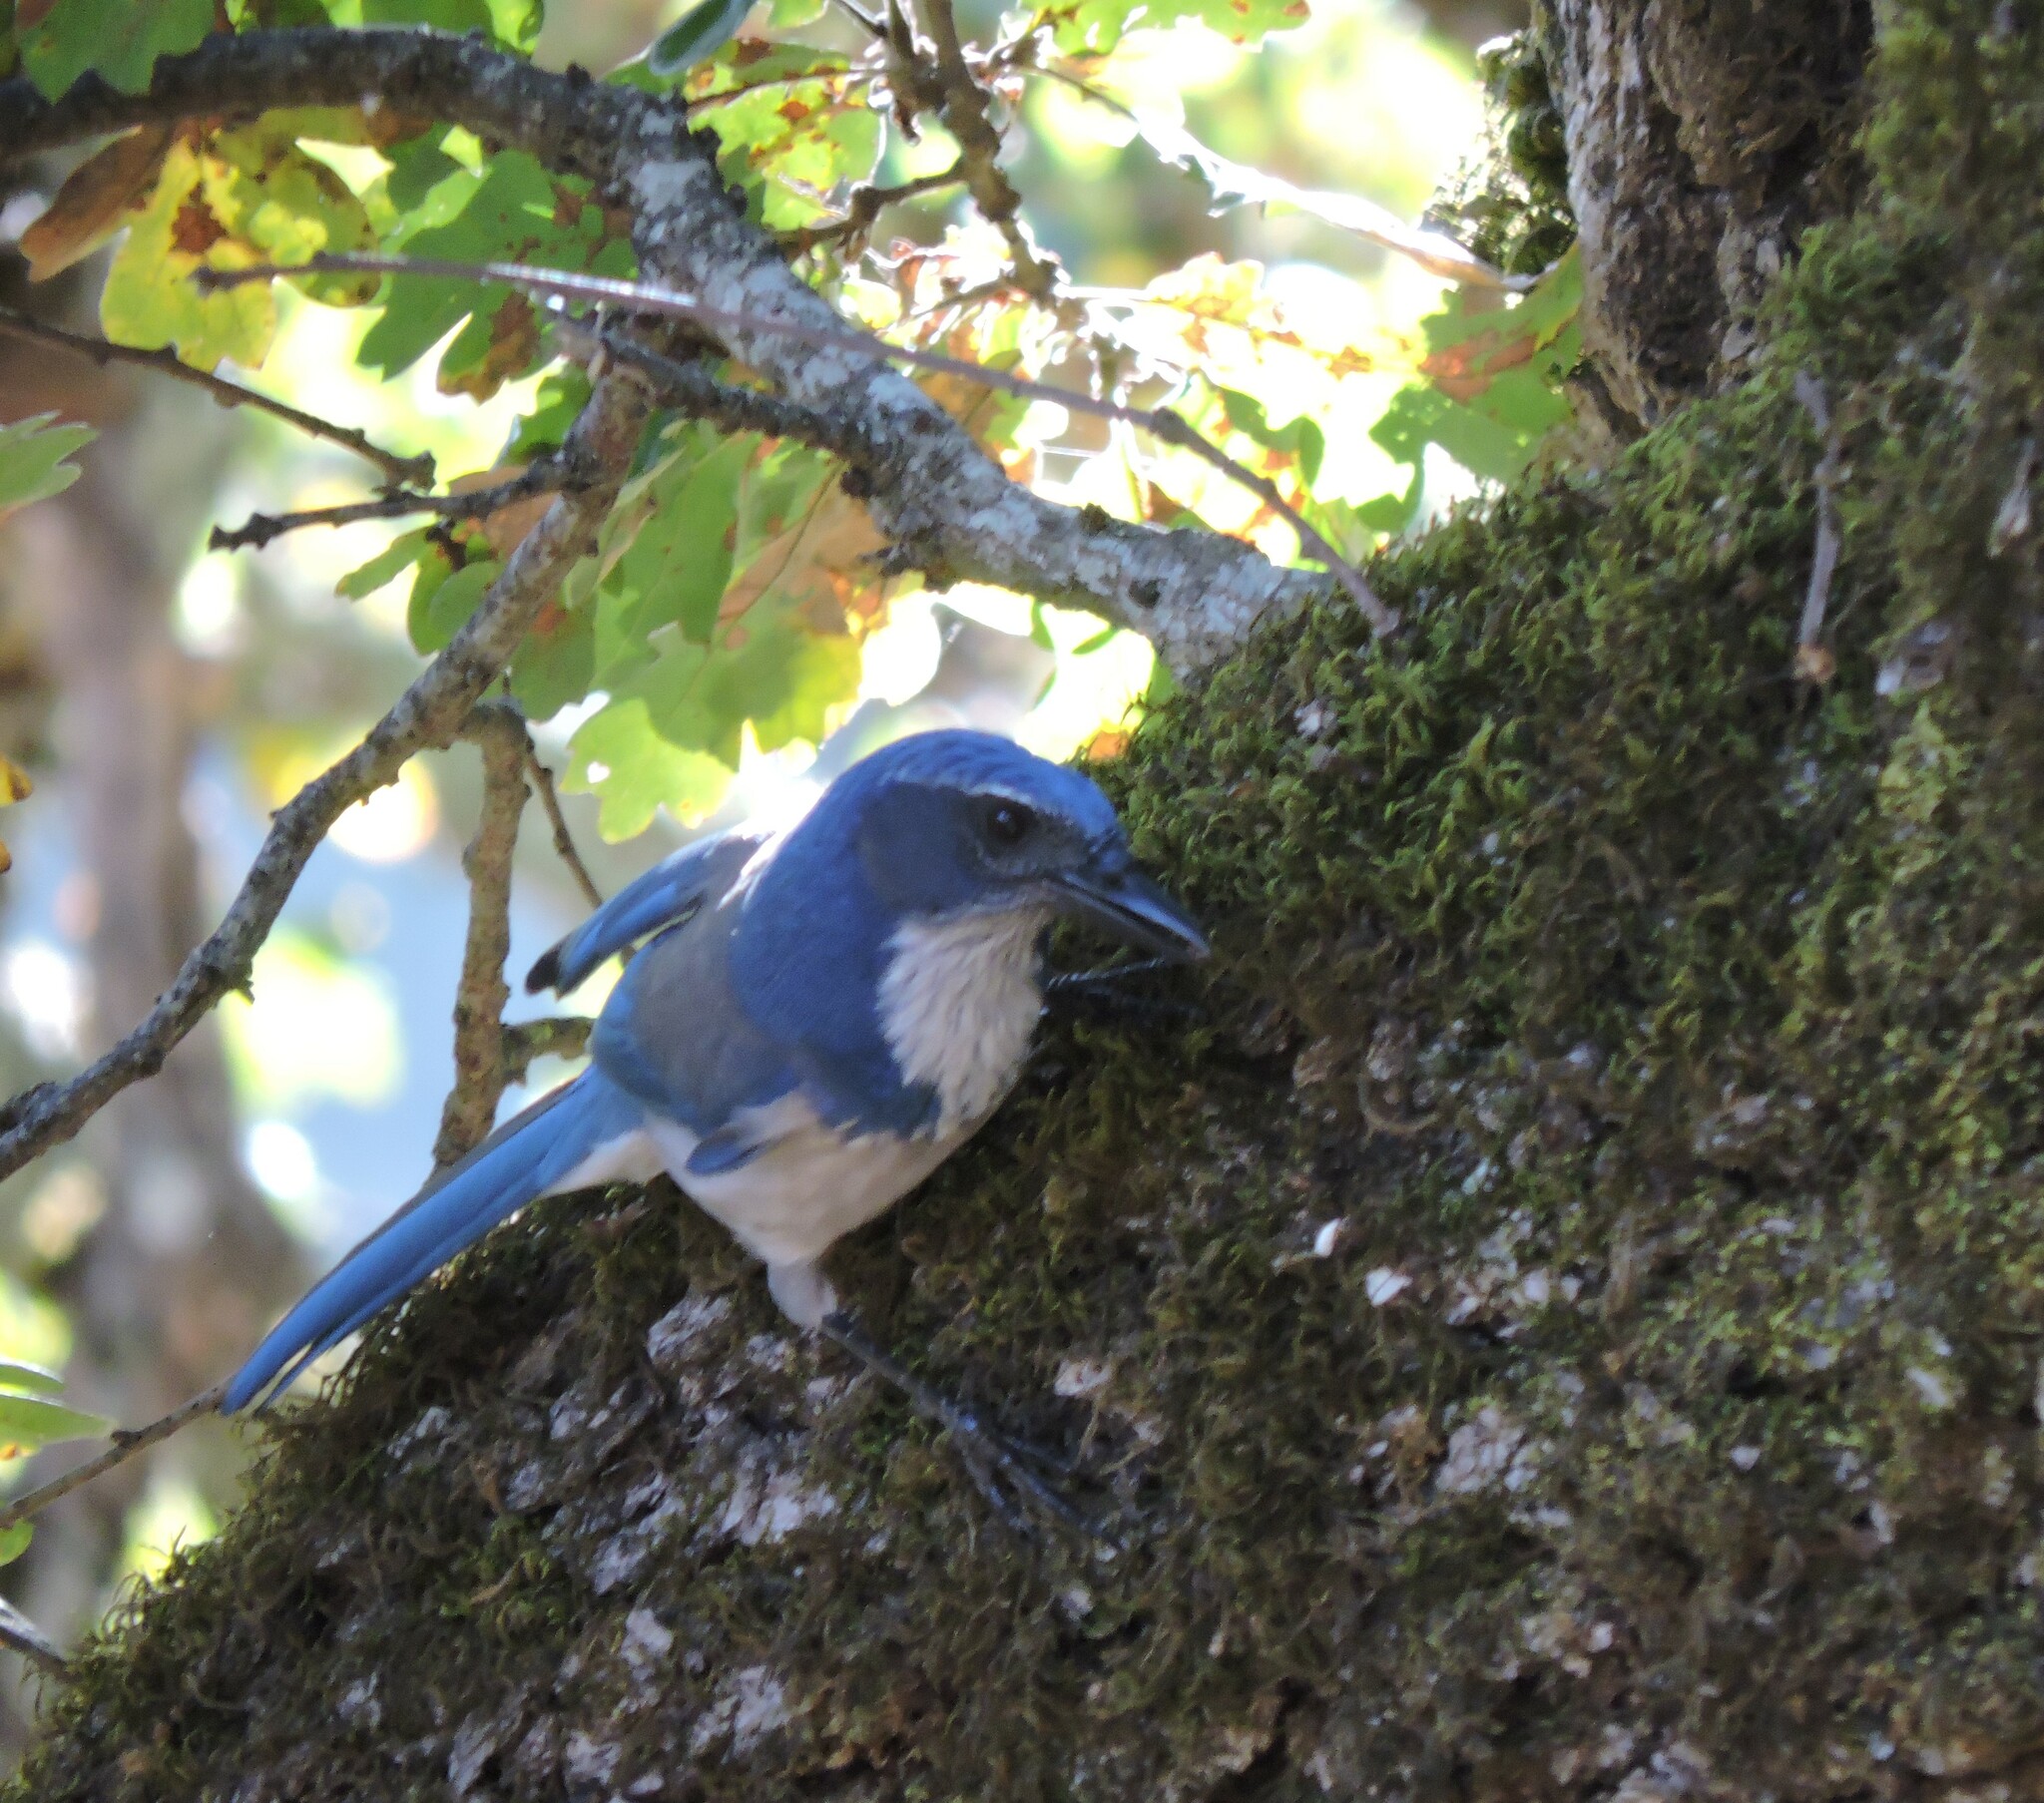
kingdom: Animalia
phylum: Chordata
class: Aves
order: Passeriformes
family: Corvidae
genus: Aphelocoma
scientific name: Aphelocoma californica
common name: California scrub-jay
